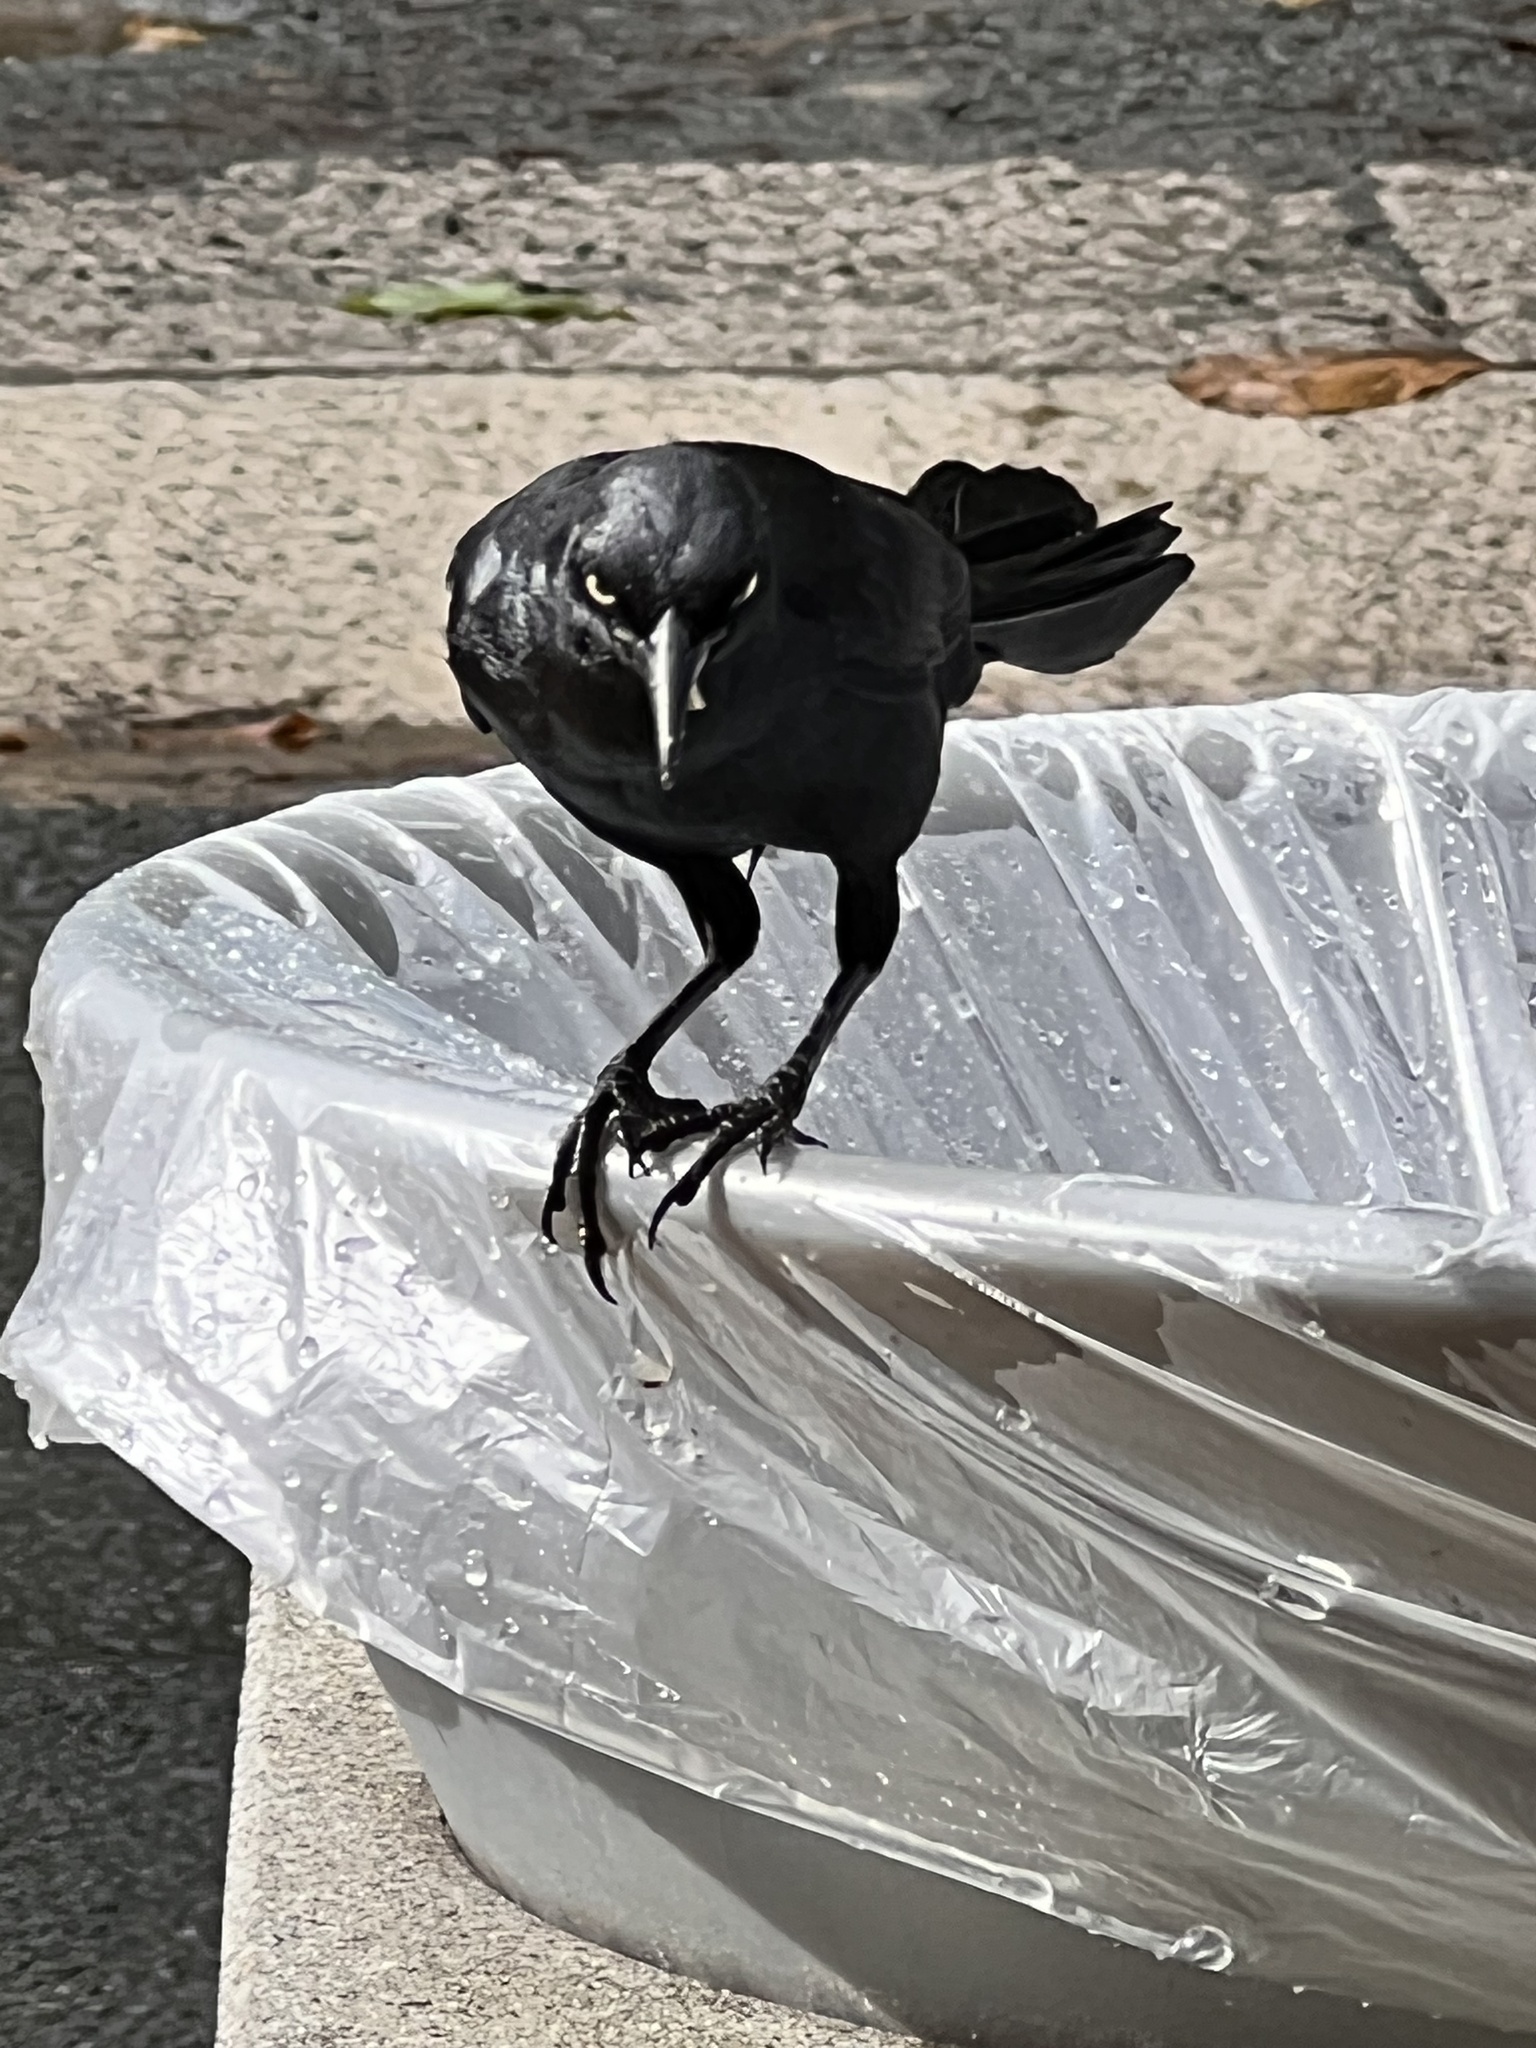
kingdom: Animalia
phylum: Chordata
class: Aves
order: Passeriformes
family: Icteridae
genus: Quiscalus
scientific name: Quiscalus niger
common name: Greater antillean grackle
